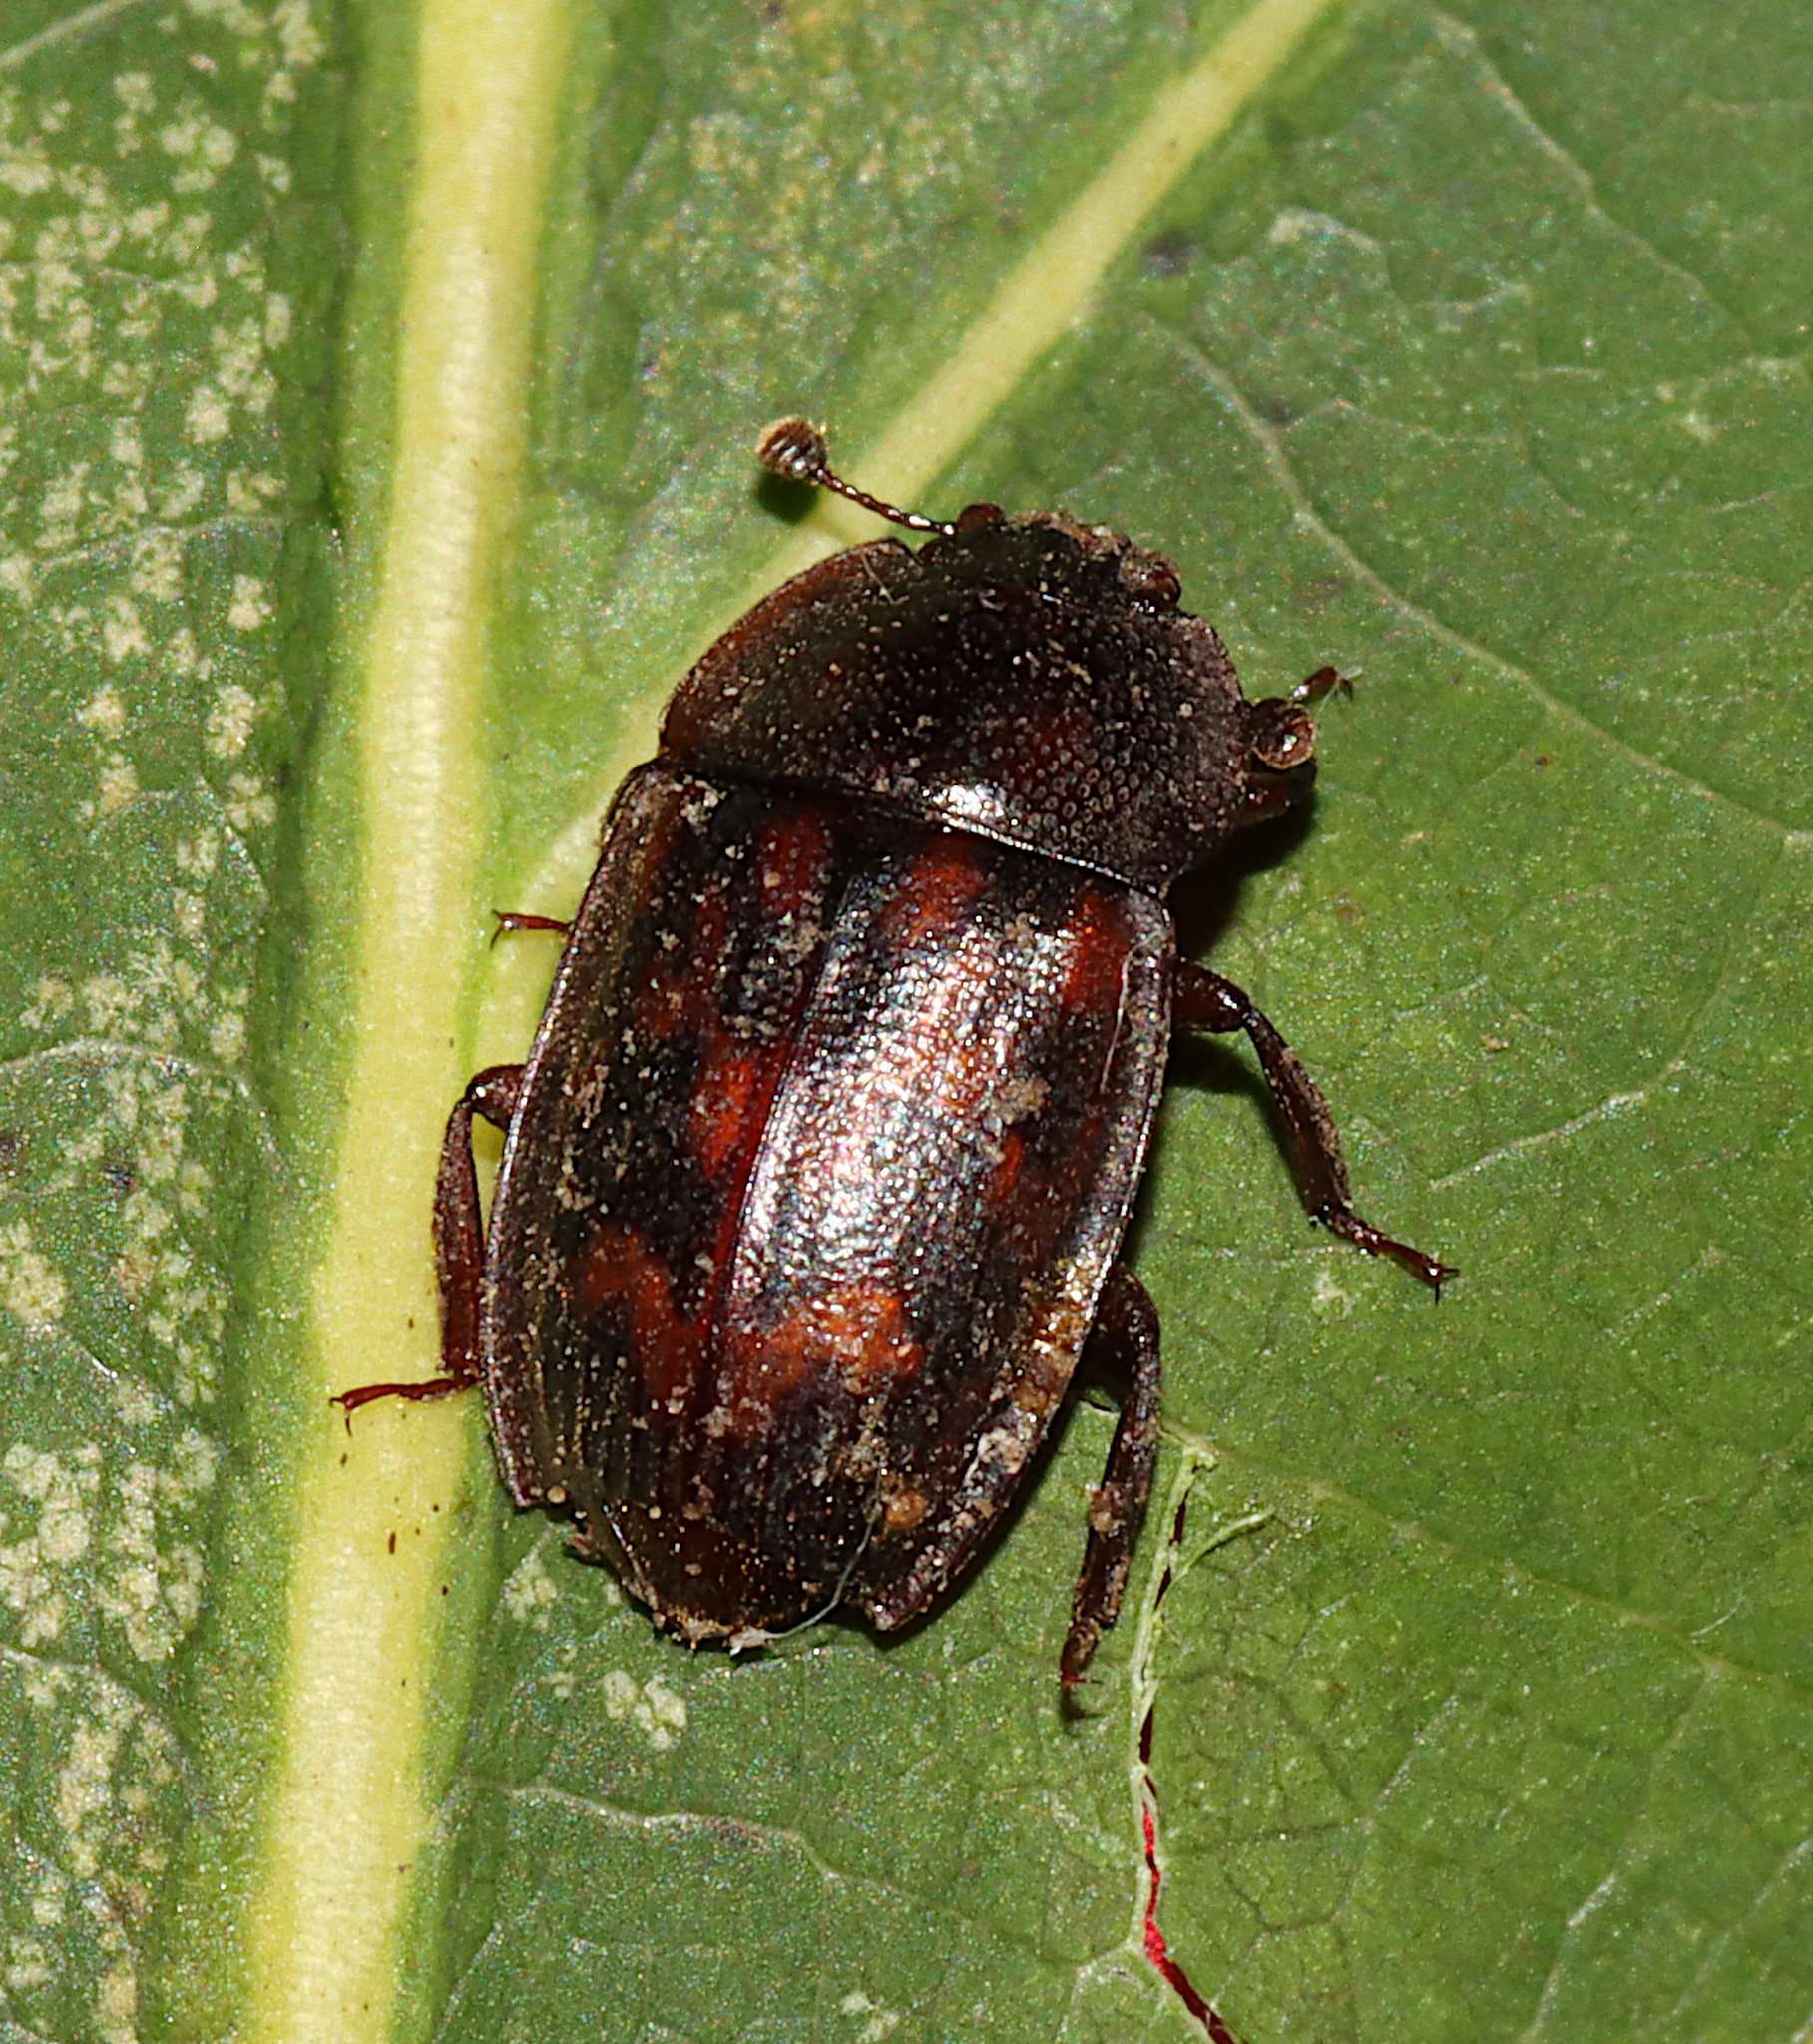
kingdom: Animalia
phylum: Arthropoda
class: Insecta
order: Coleoptera
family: Nitidulidae
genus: Phenolia
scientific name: Phenolia grossa
